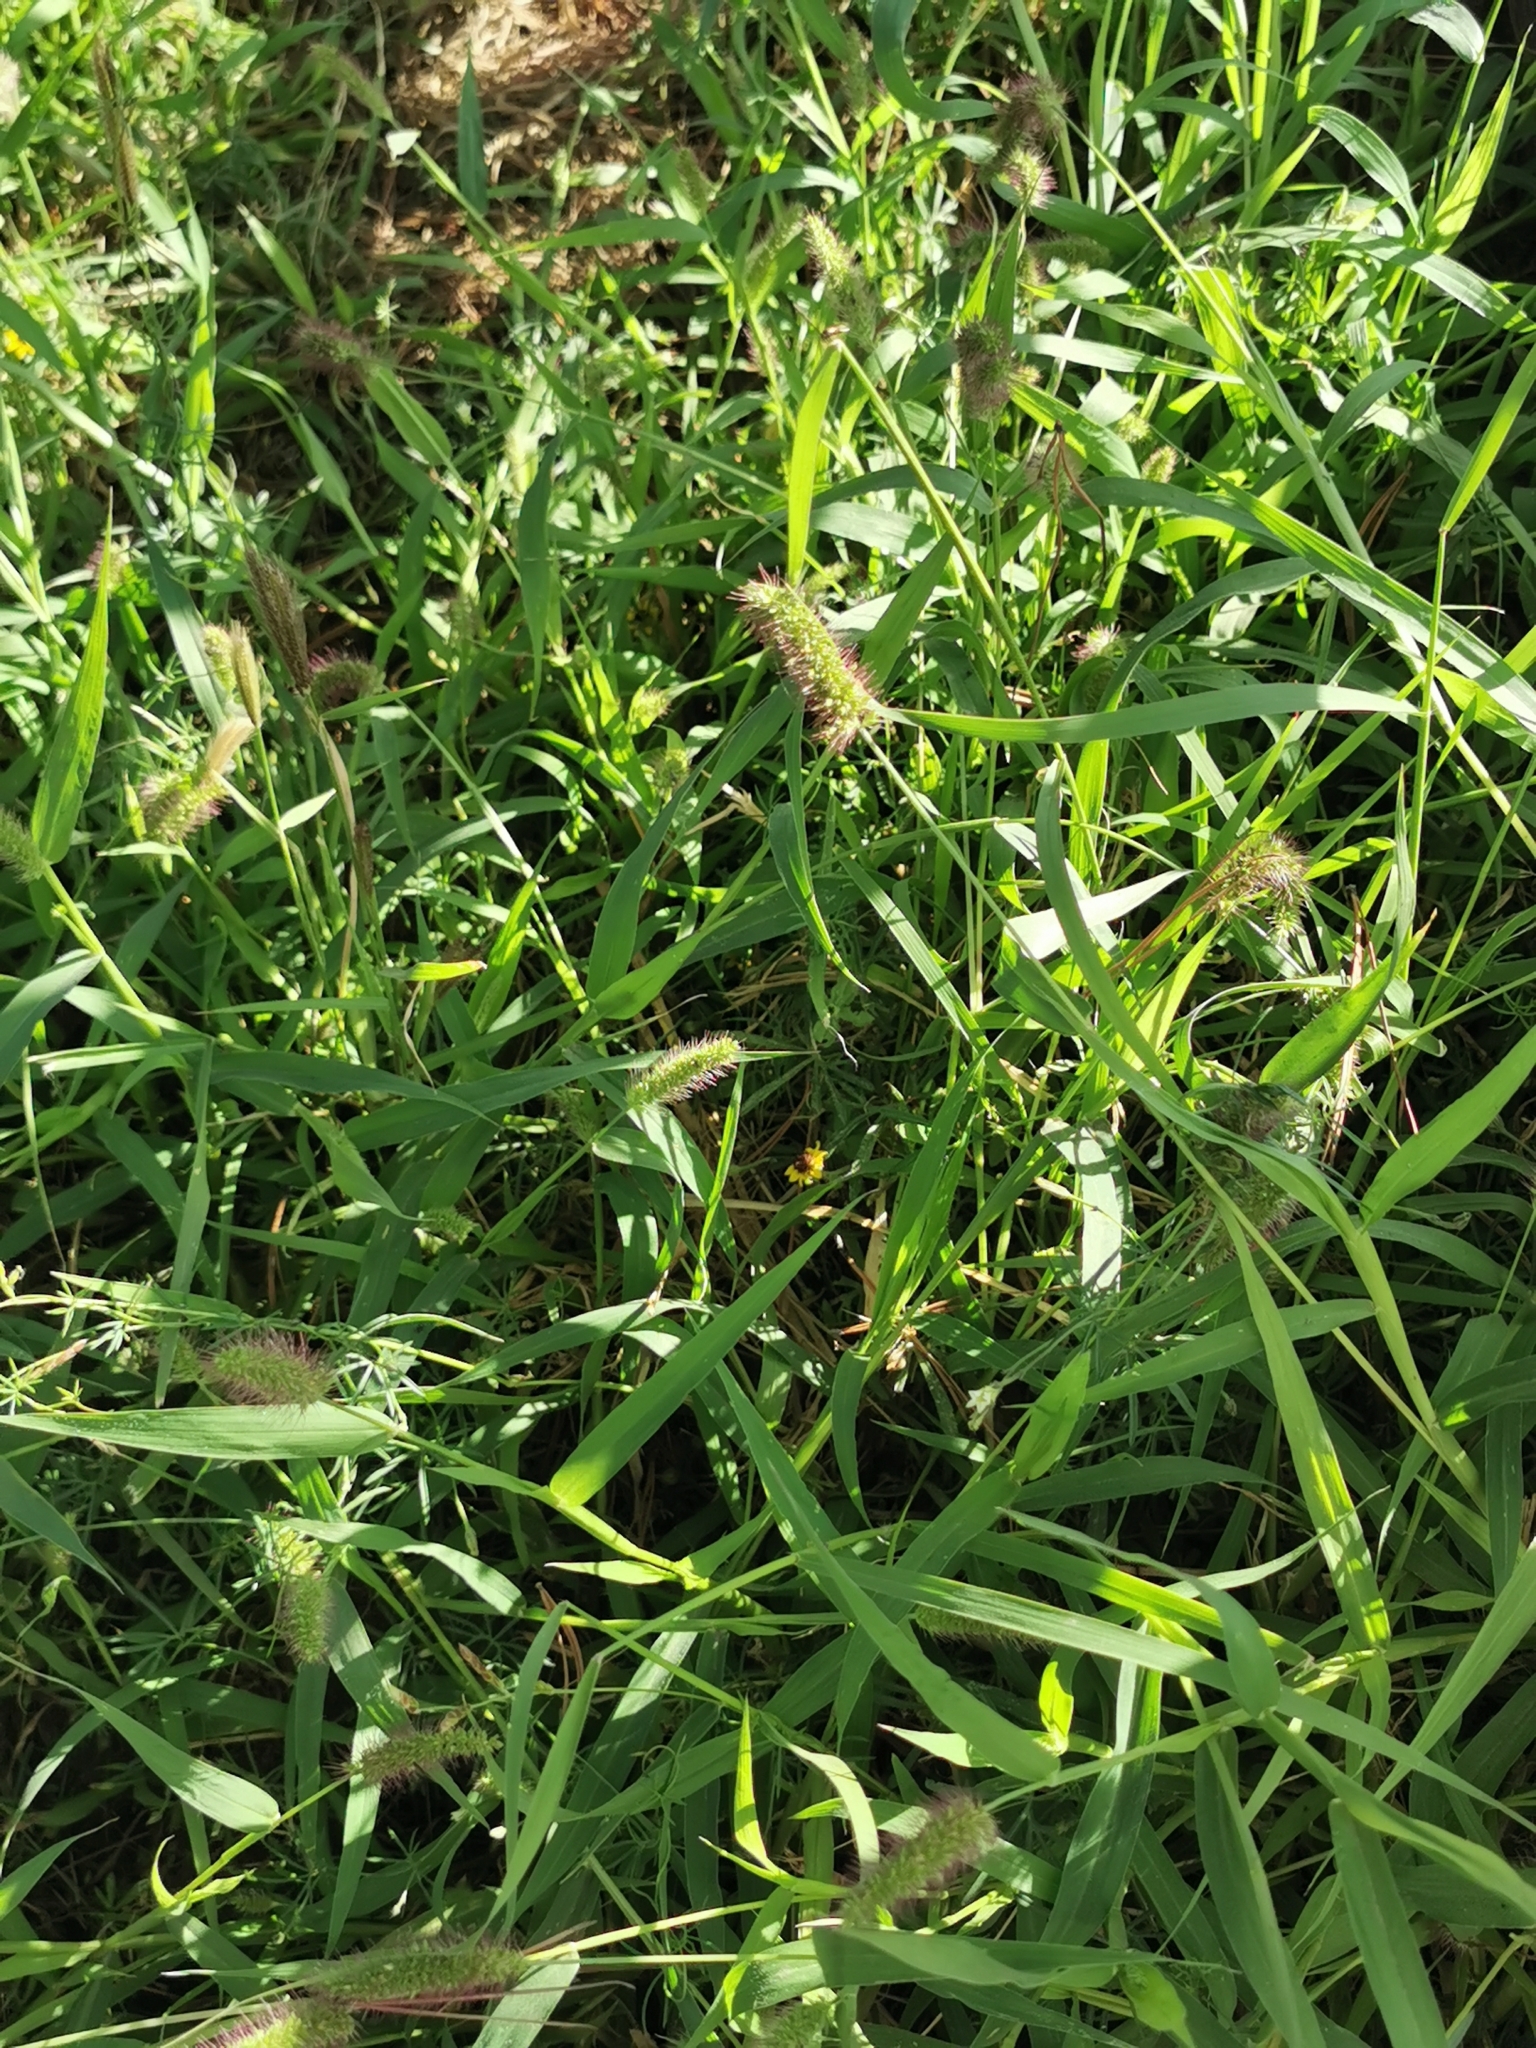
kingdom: Plantae
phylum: Tracheophyta
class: Liliopsida
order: Poales
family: Poaceae
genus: Setaria
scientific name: Setaria adhaerens
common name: Adherent bristle-grass
